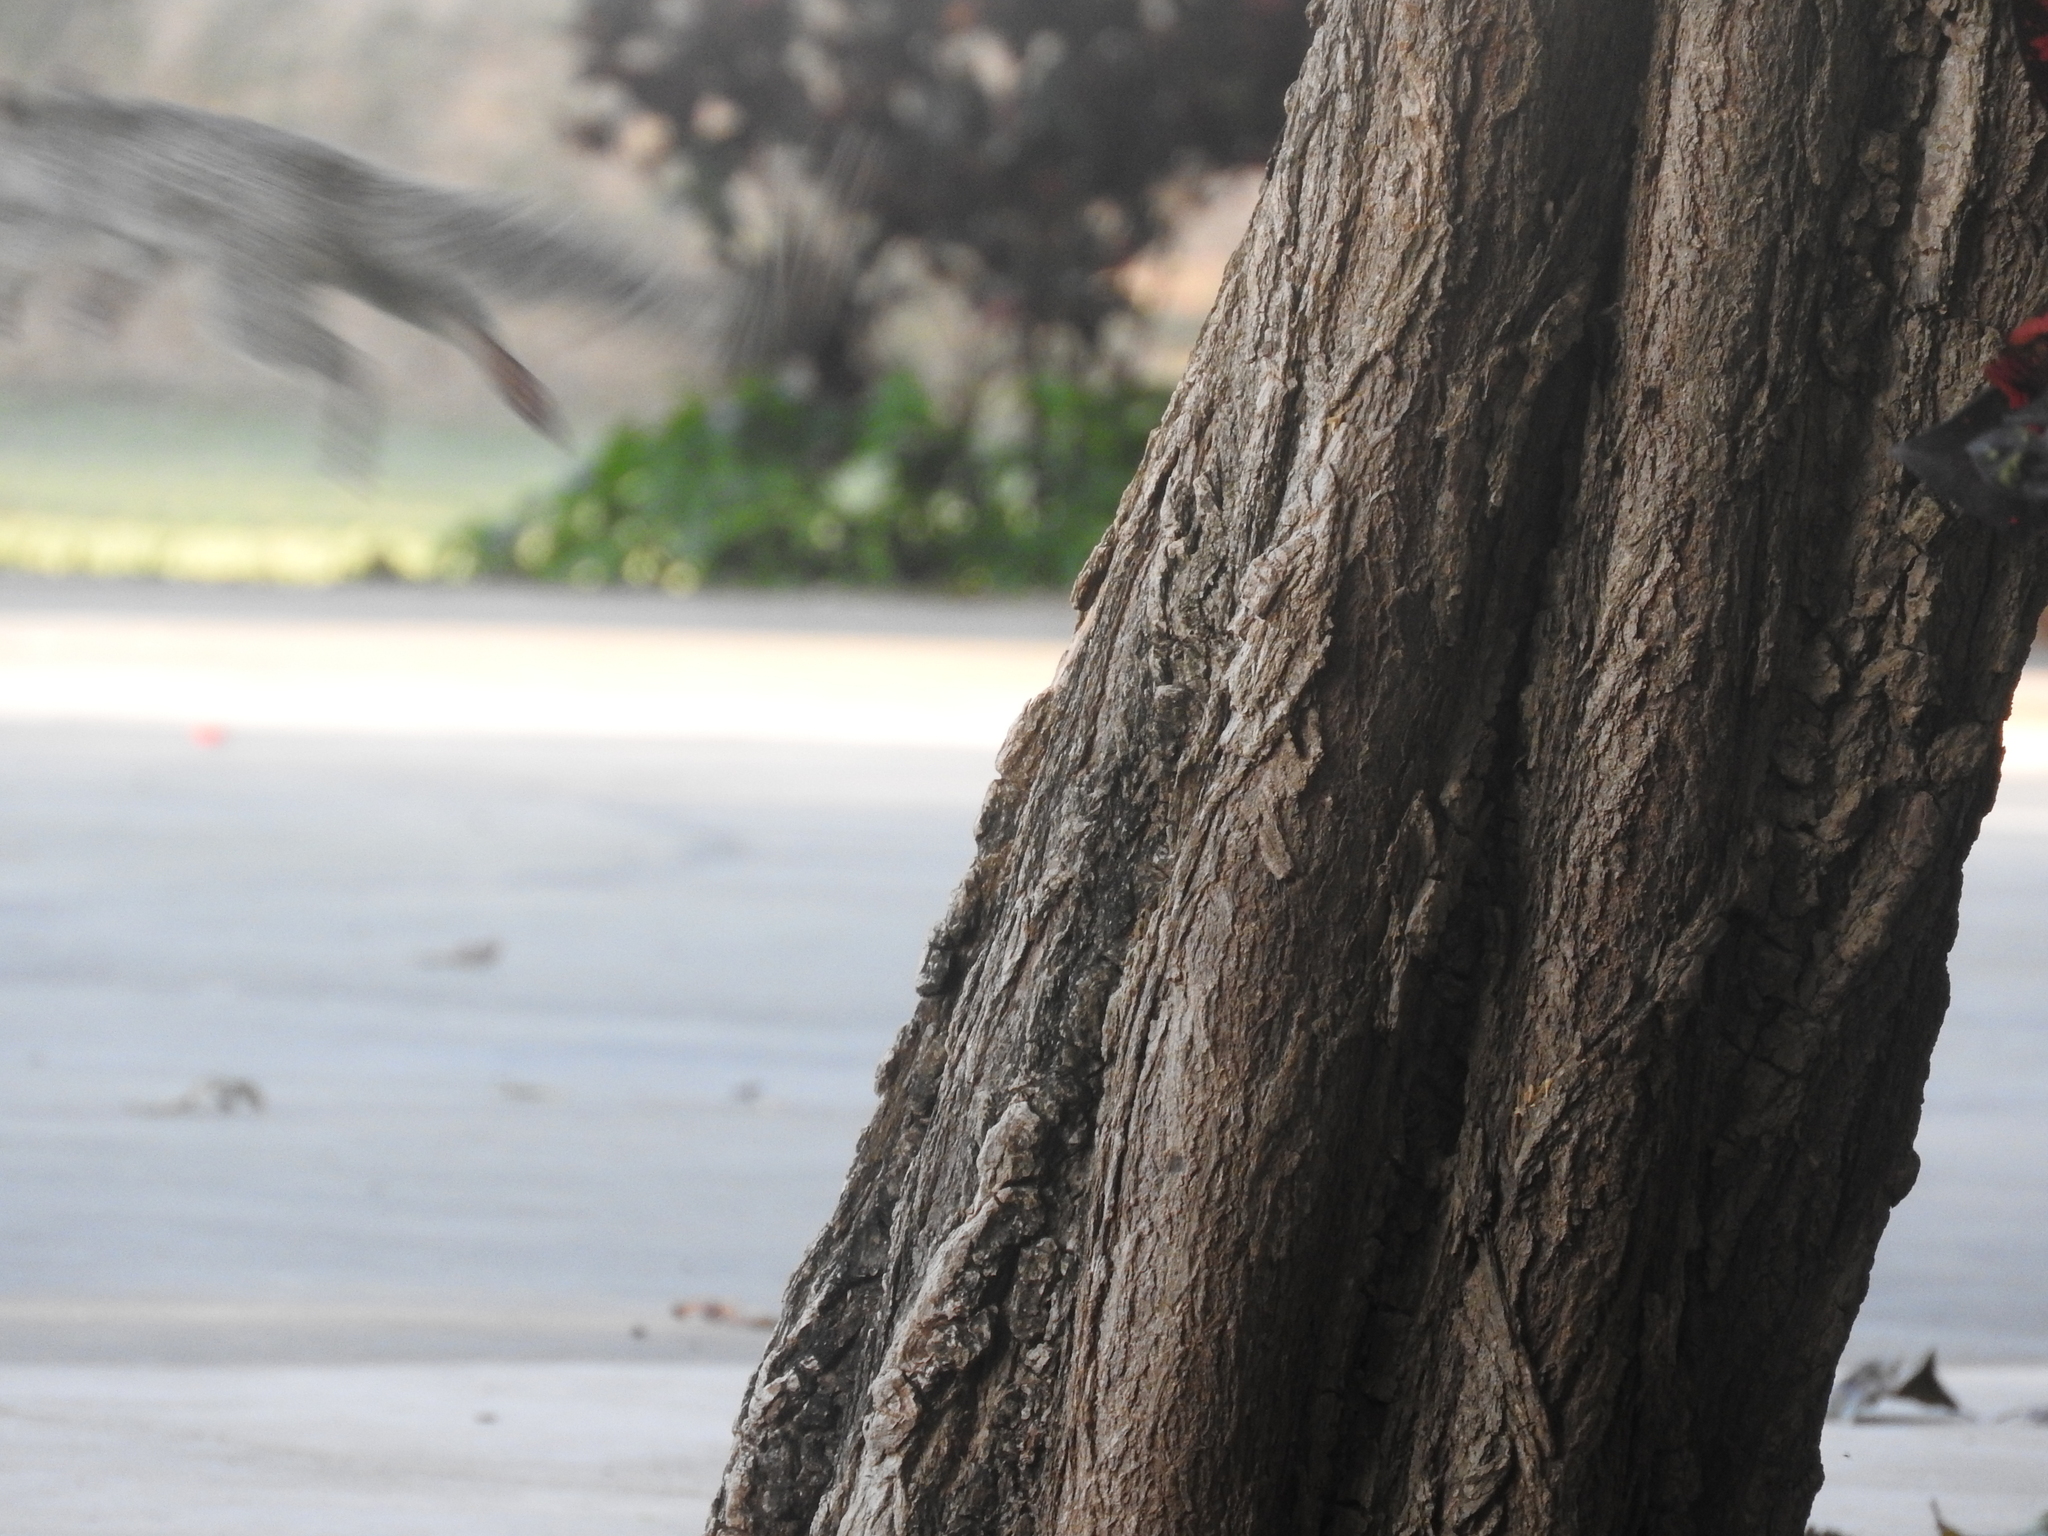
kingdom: Animalia
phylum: Chordata
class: Mammalia
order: Rodentia
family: Sciuridae
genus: Sciurus
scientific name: Sciurus yucatanensis
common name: Yucatan squirrel
